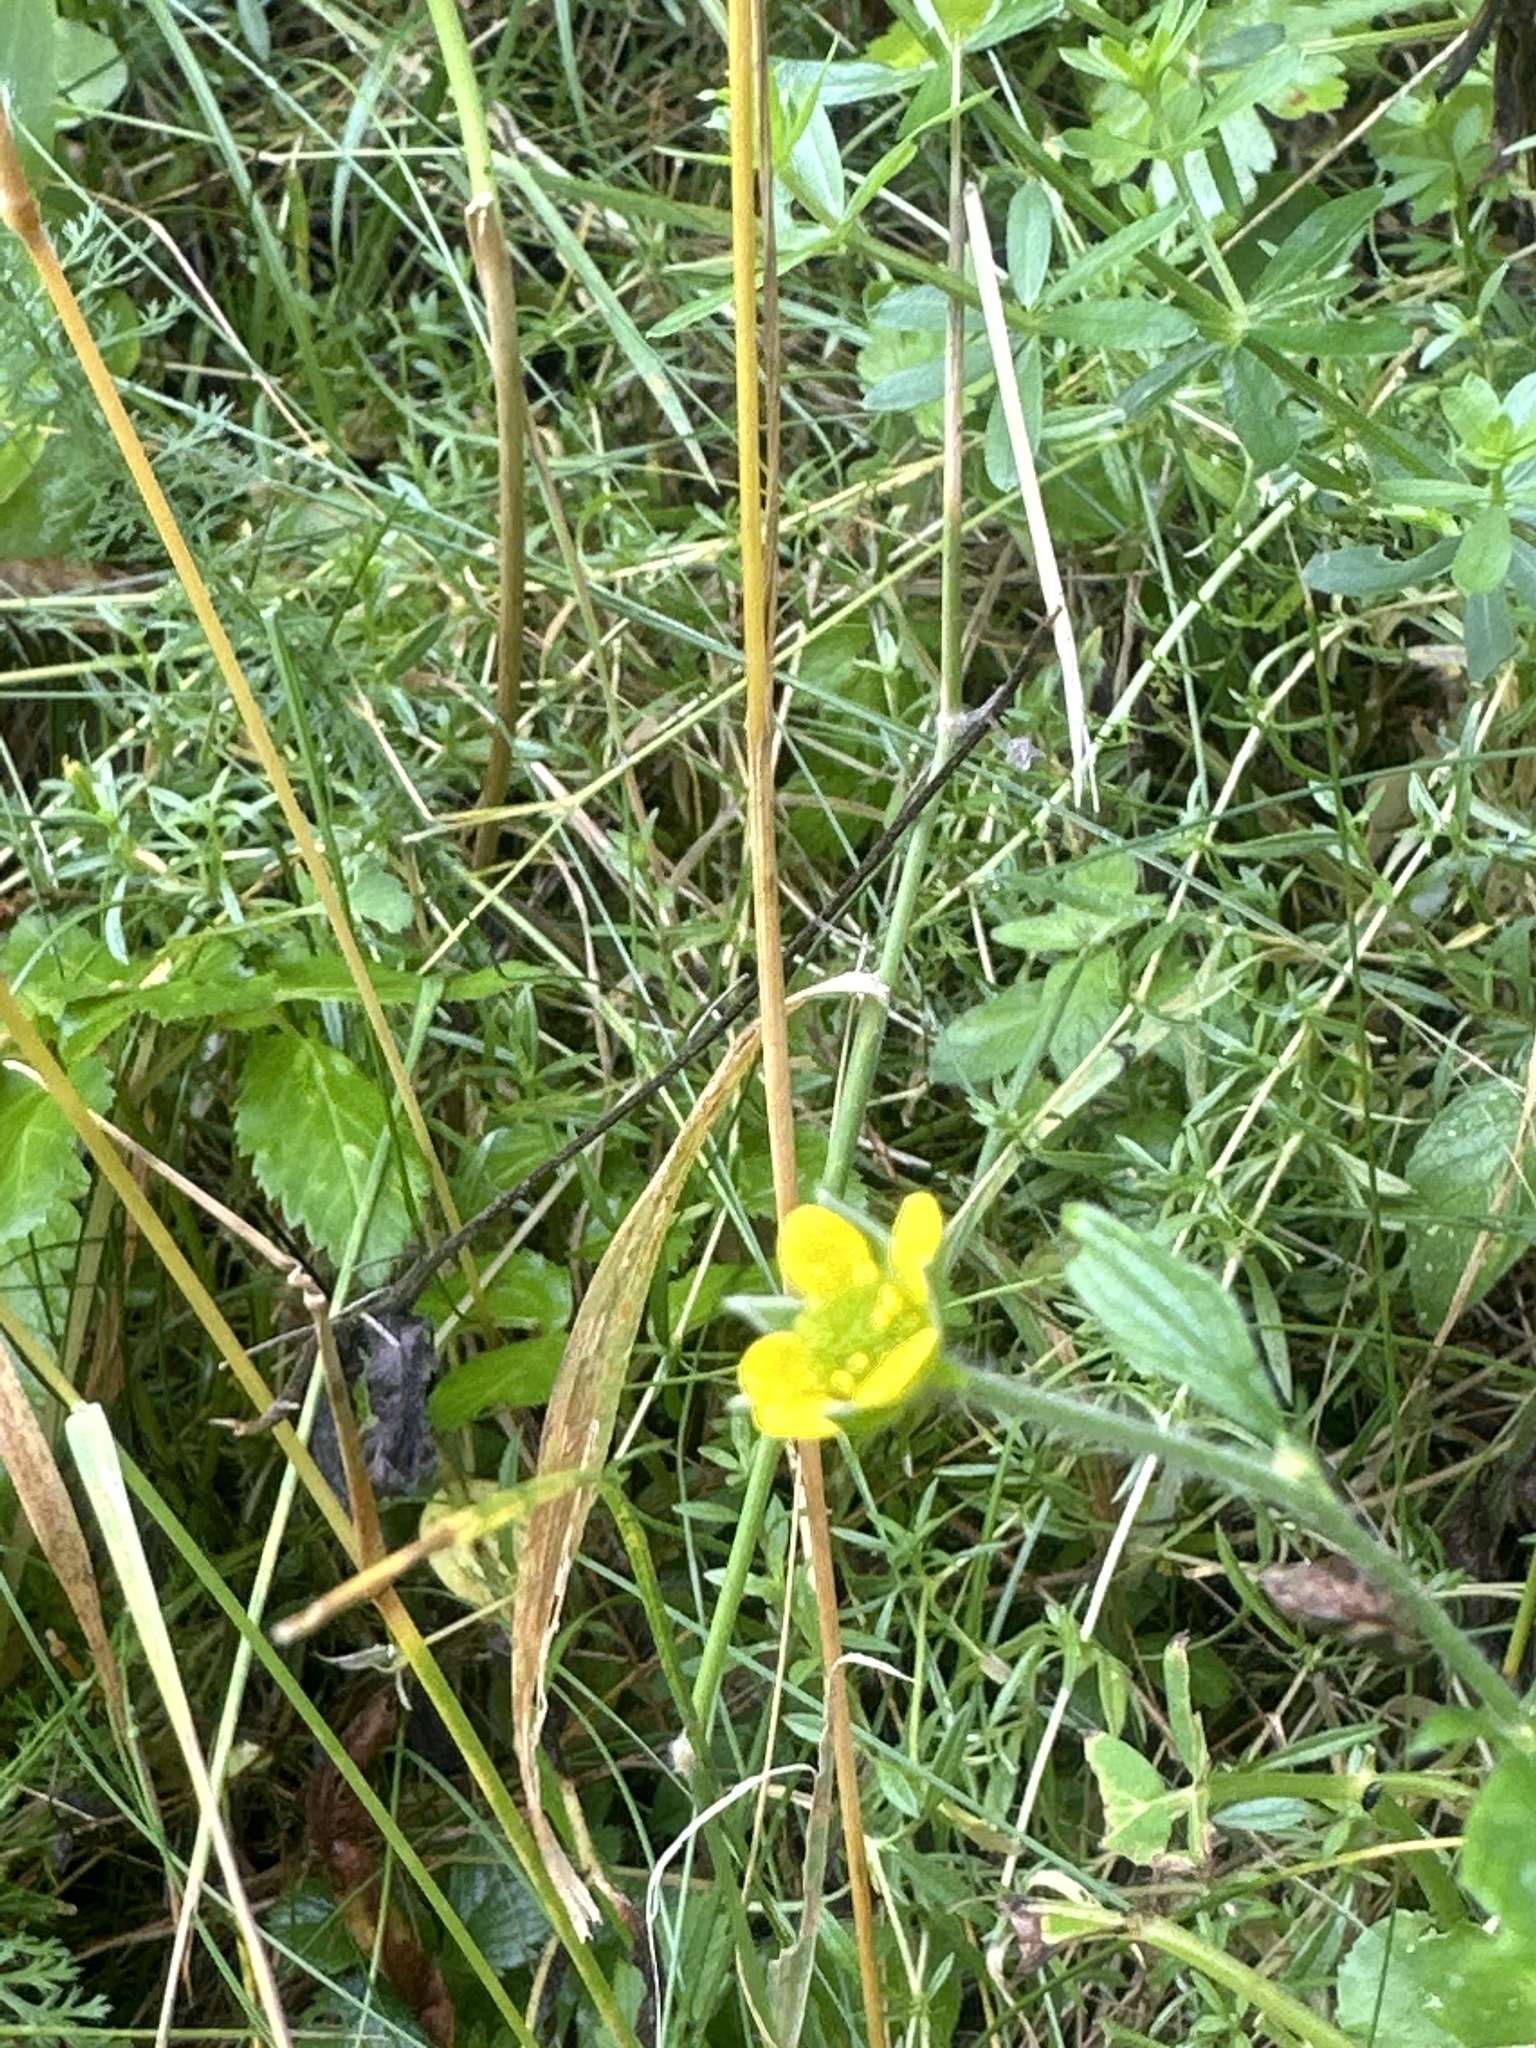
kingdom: Plantae
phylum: Tracheophyta
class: Magnoliopsida
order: Rosales
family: Rosaceae
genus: Geum
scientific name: Geum urbanum
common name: Wood avens
